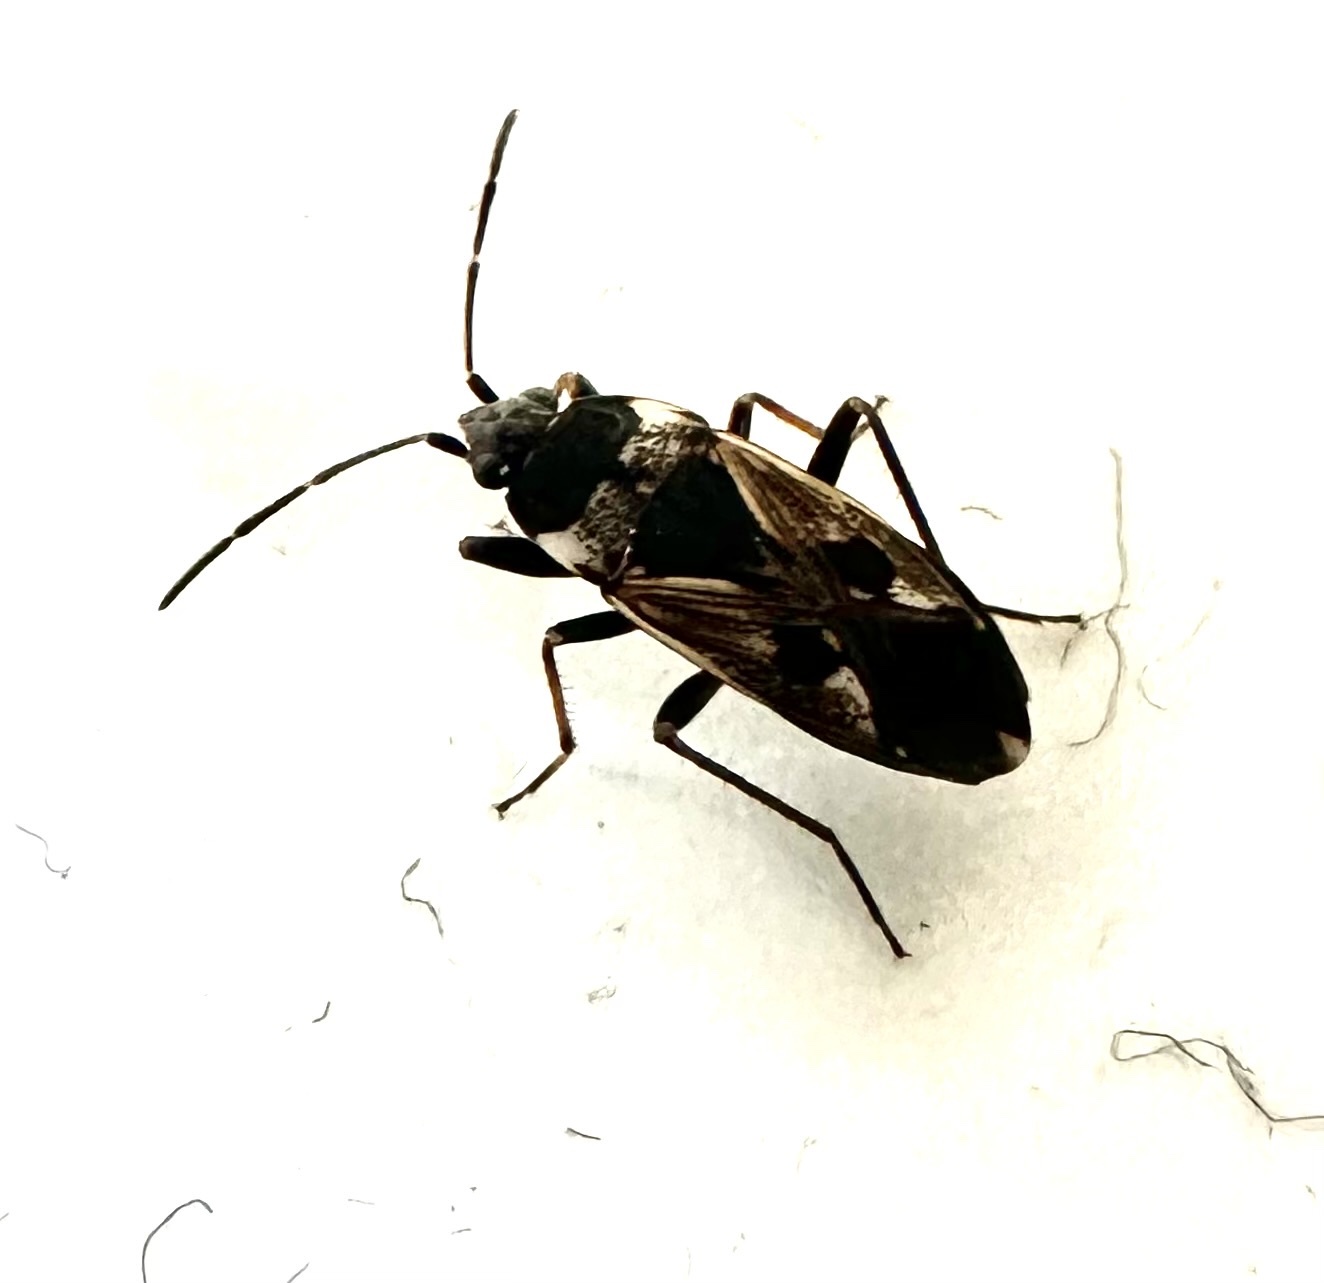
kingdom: Animalia
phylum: Arthropoda
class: Insecta
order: Hemiptera
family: Rhyparochromidae
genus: Rhyparochromus
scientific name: Rhyparochromus vulgaris
